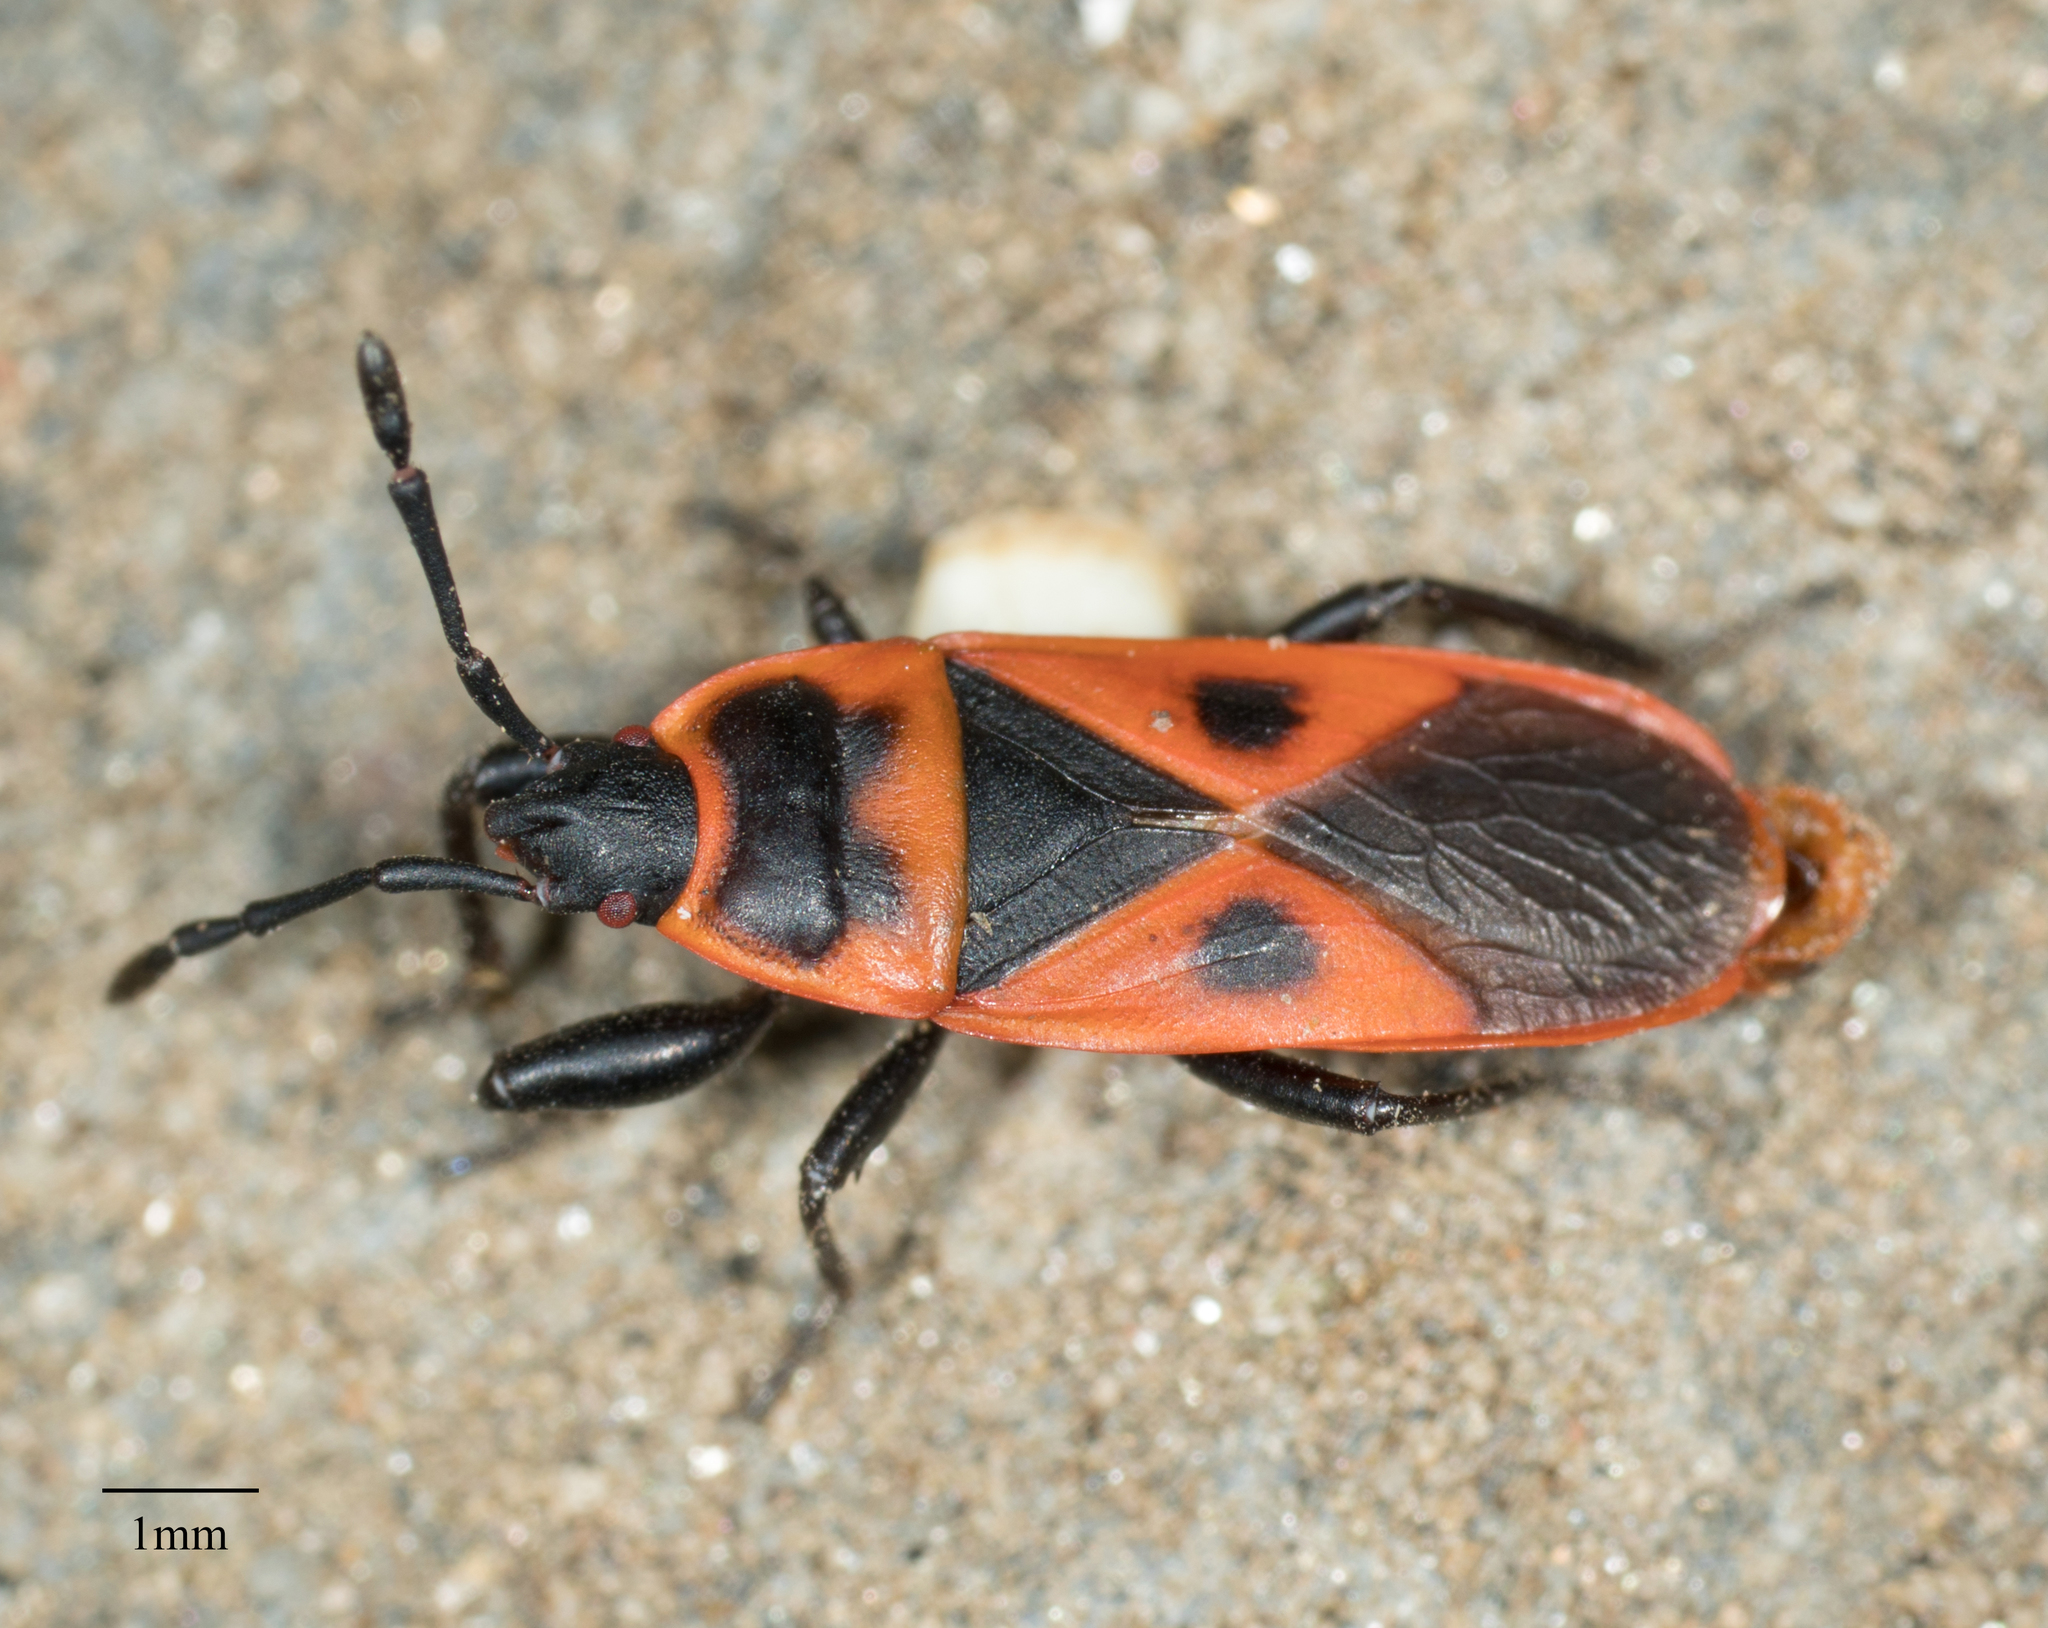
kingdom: Animalia
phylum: Arthropoda
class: Insecta
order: Hemiptera
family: Pyrrhocoridae
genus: Scantius
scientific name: Scantius aegyptius
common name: Red bug
